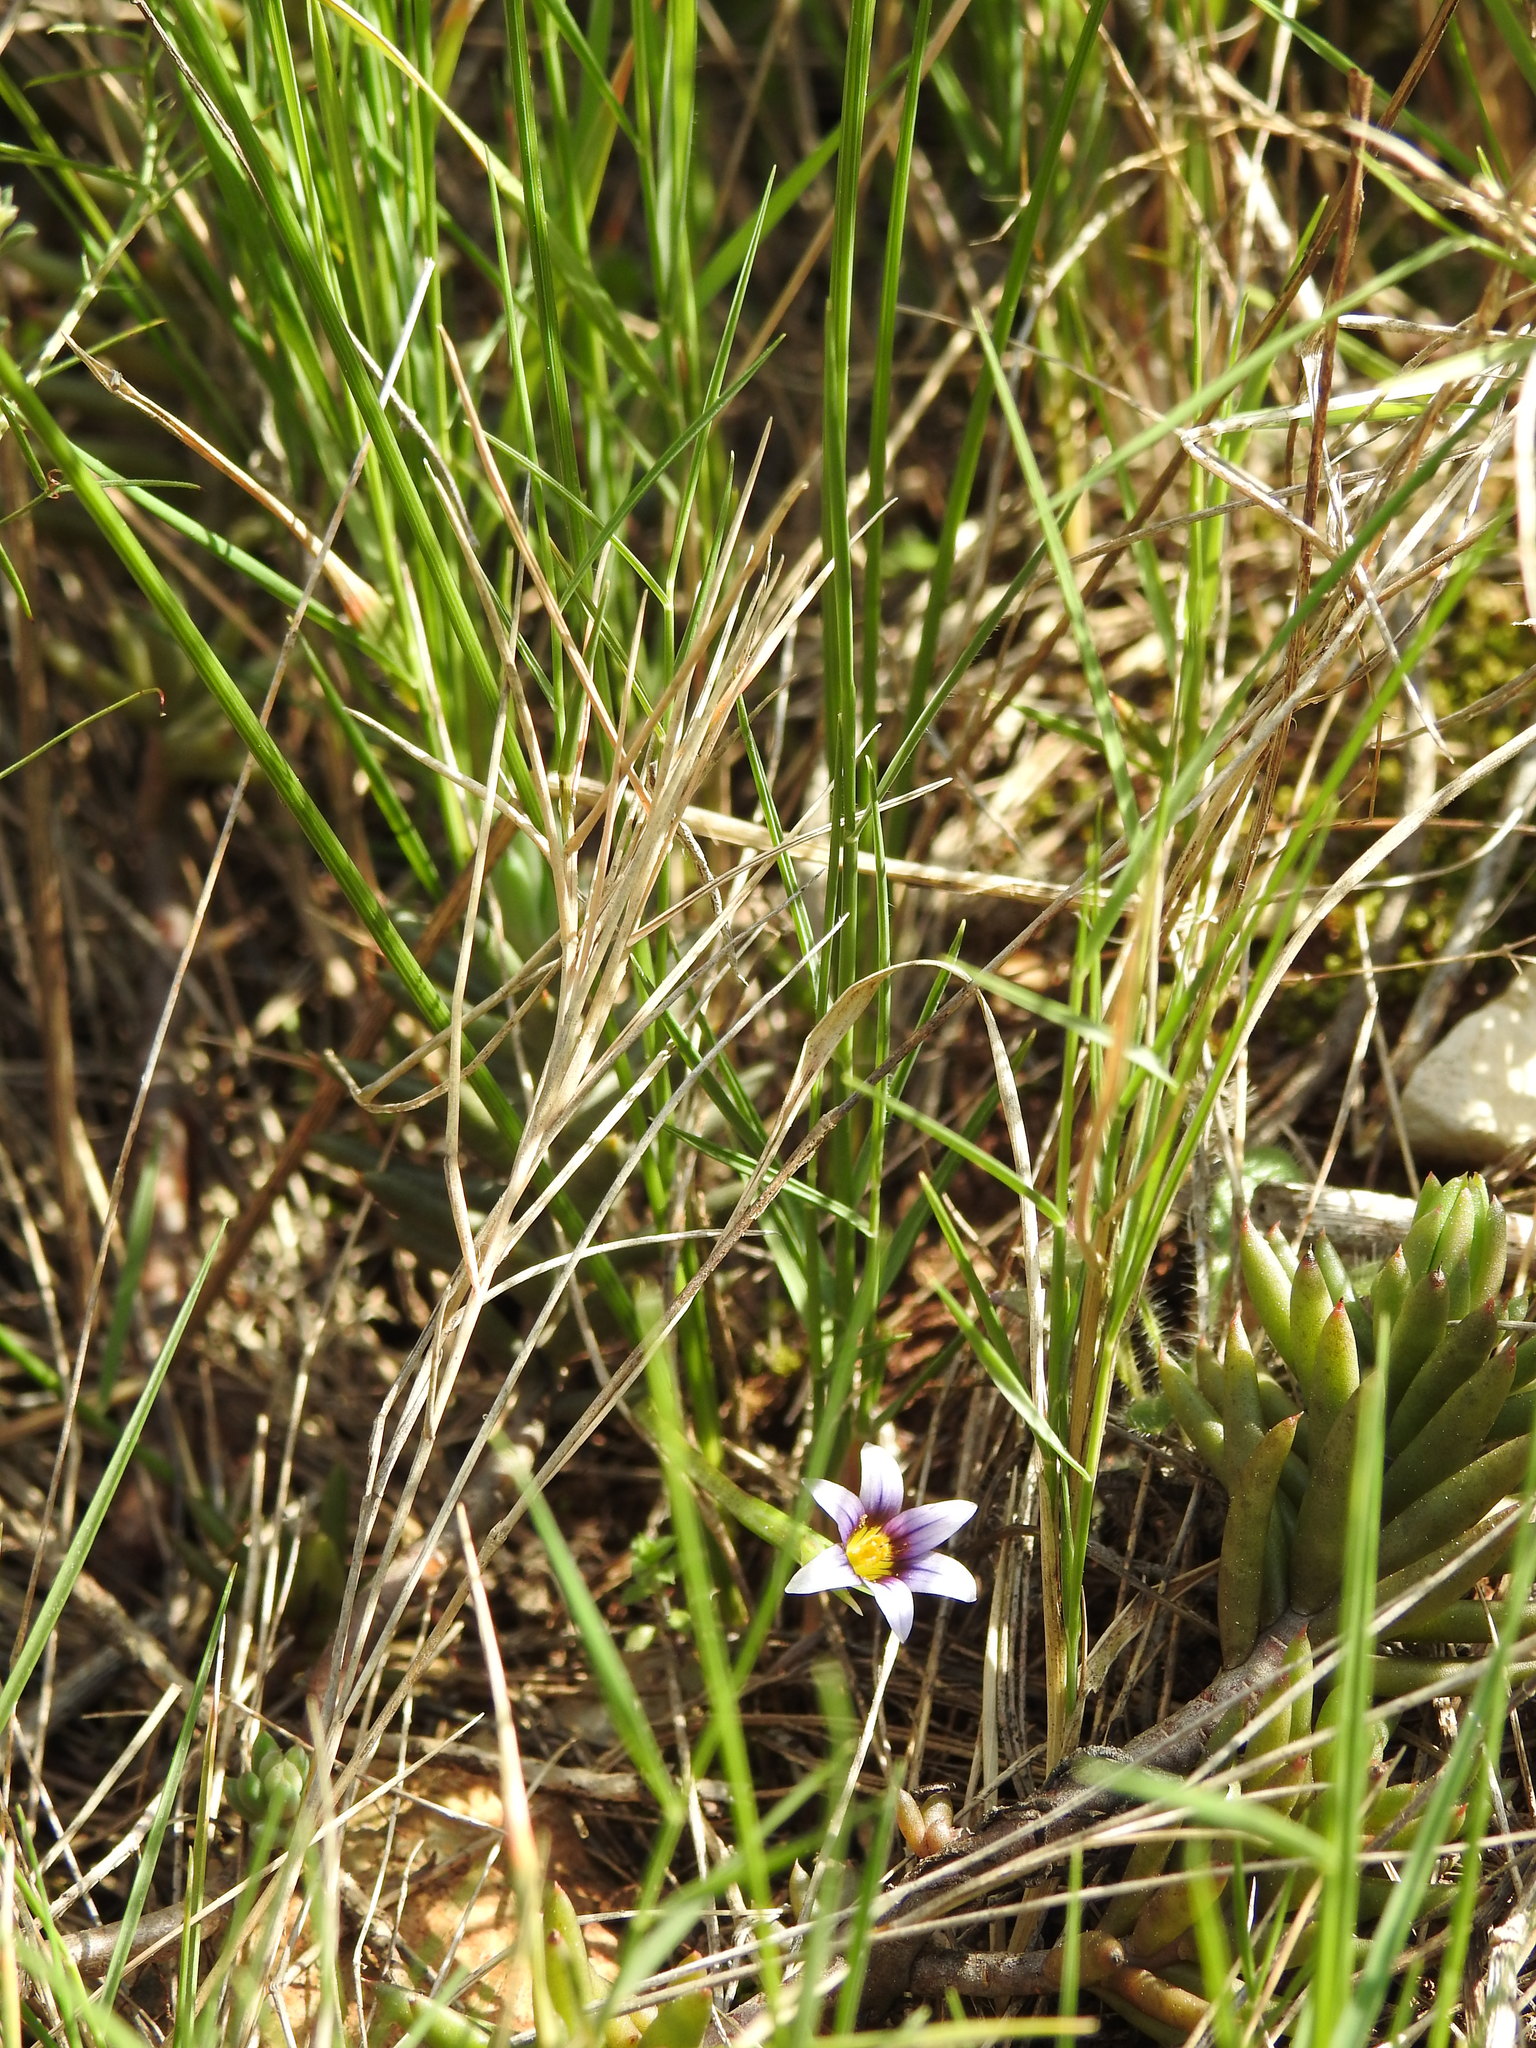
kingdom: Plantae
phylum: Tracheophyta
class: Liliopsida
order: Asparagales
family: Iridaceae
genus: Romulea
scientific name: Romulea ramiflora
